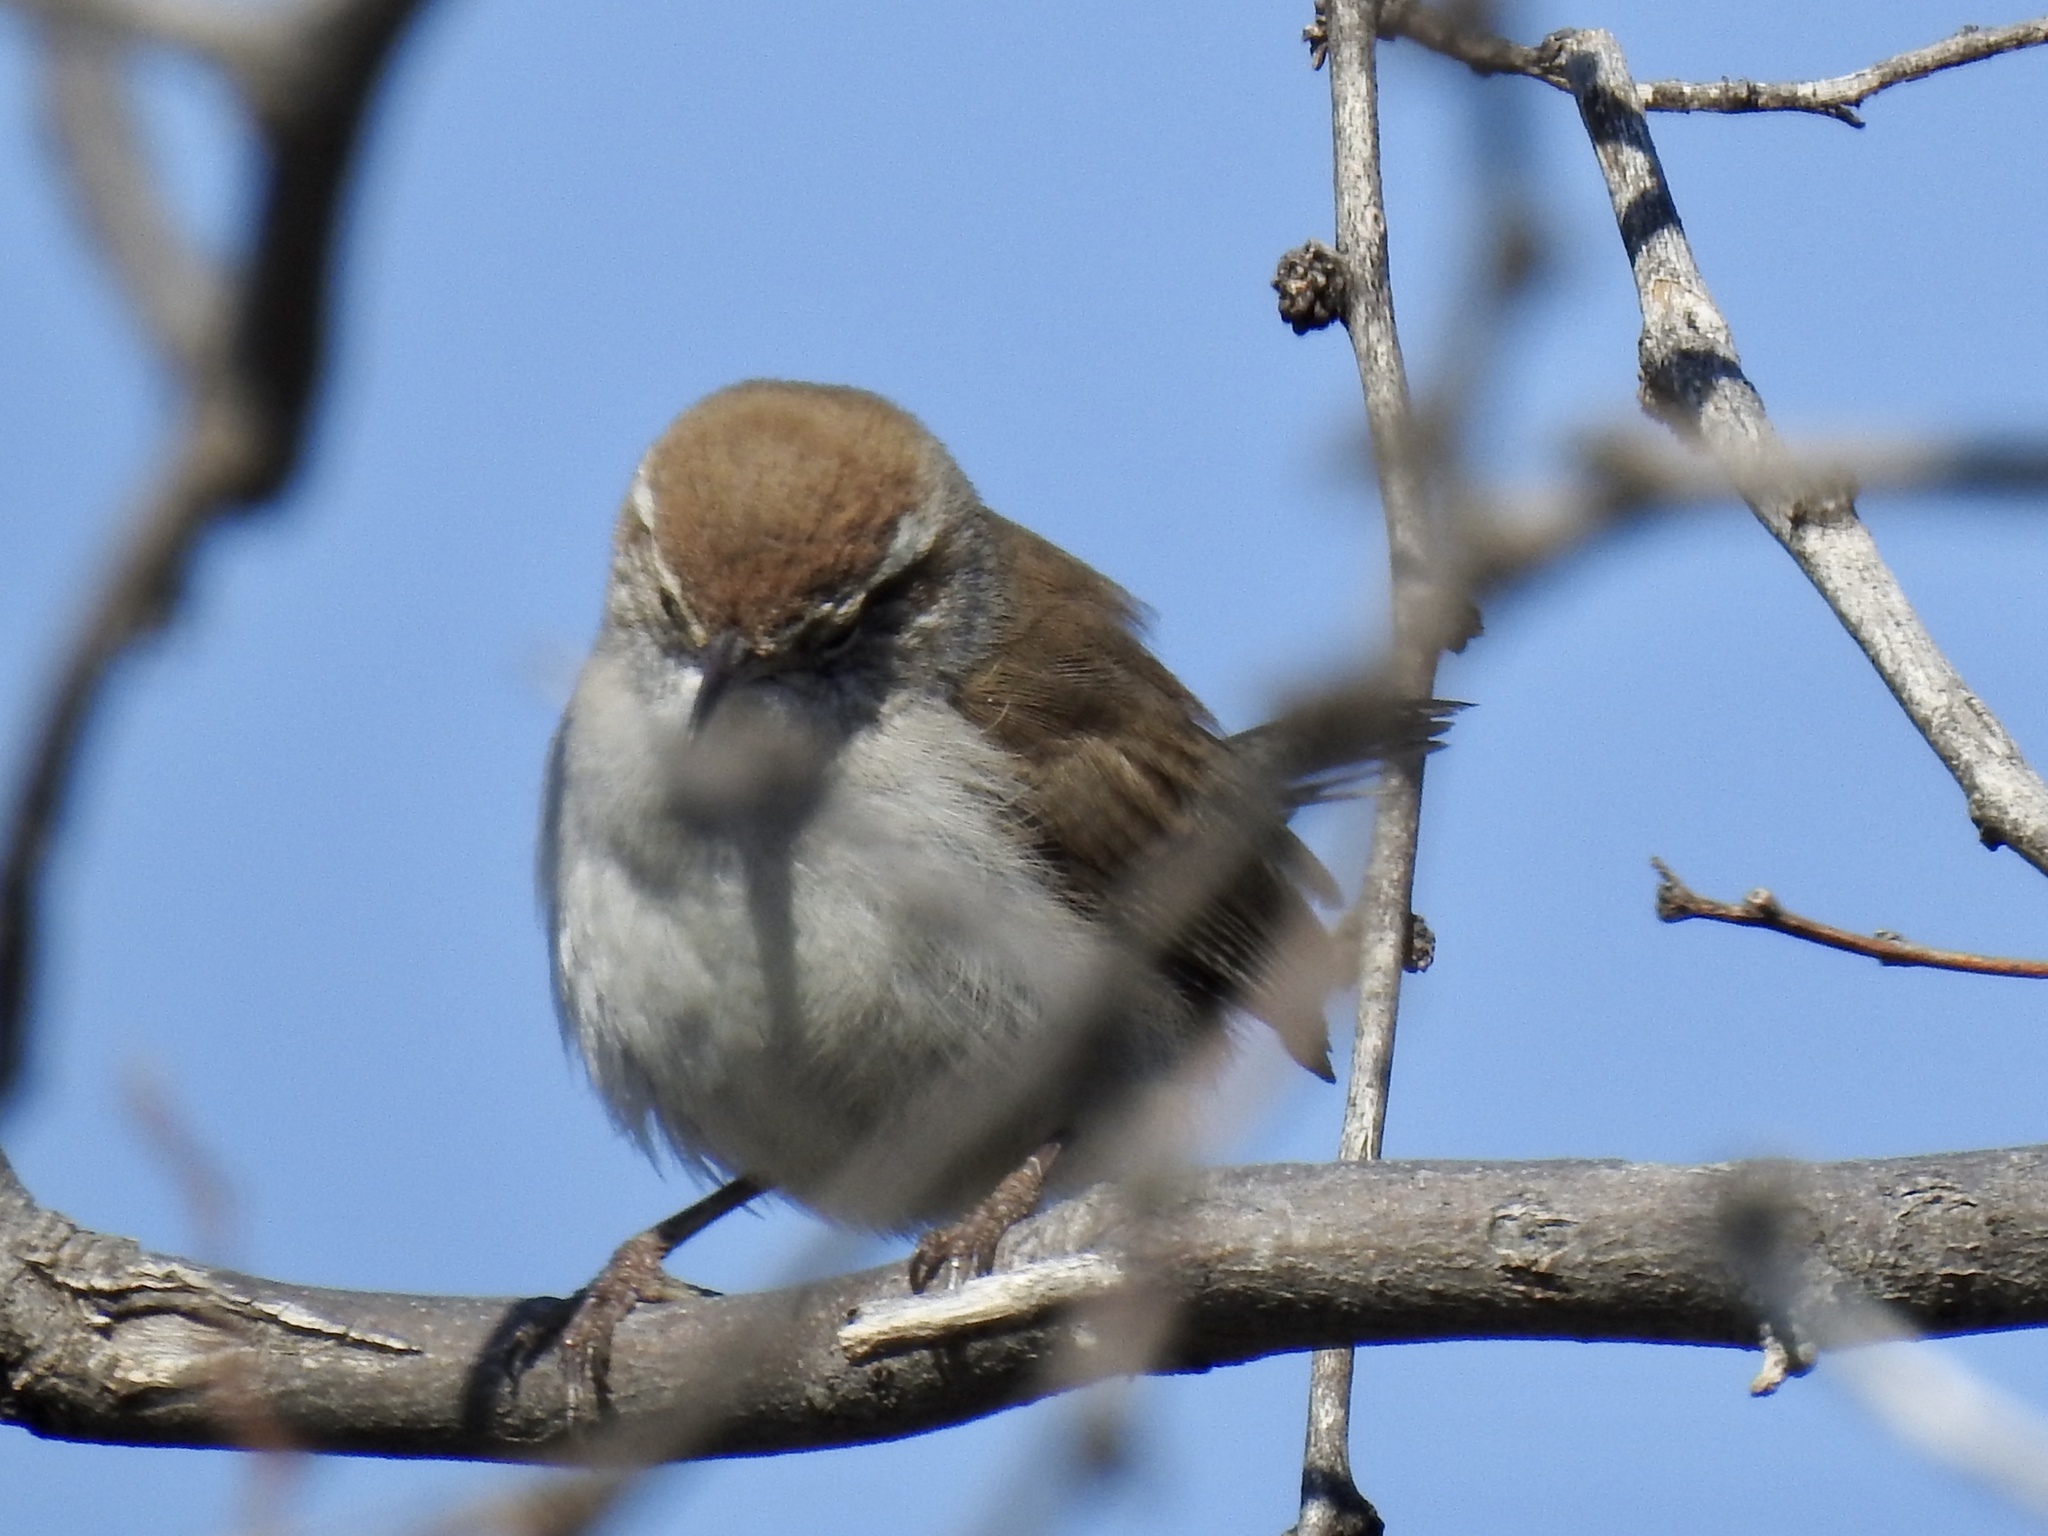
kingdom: Animalia
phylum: Chordata
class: Aves
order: Passeriformes
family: Troglodytidae
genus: Thryomanes
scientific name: Thryomanes bewickii
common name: Bewick's wren
